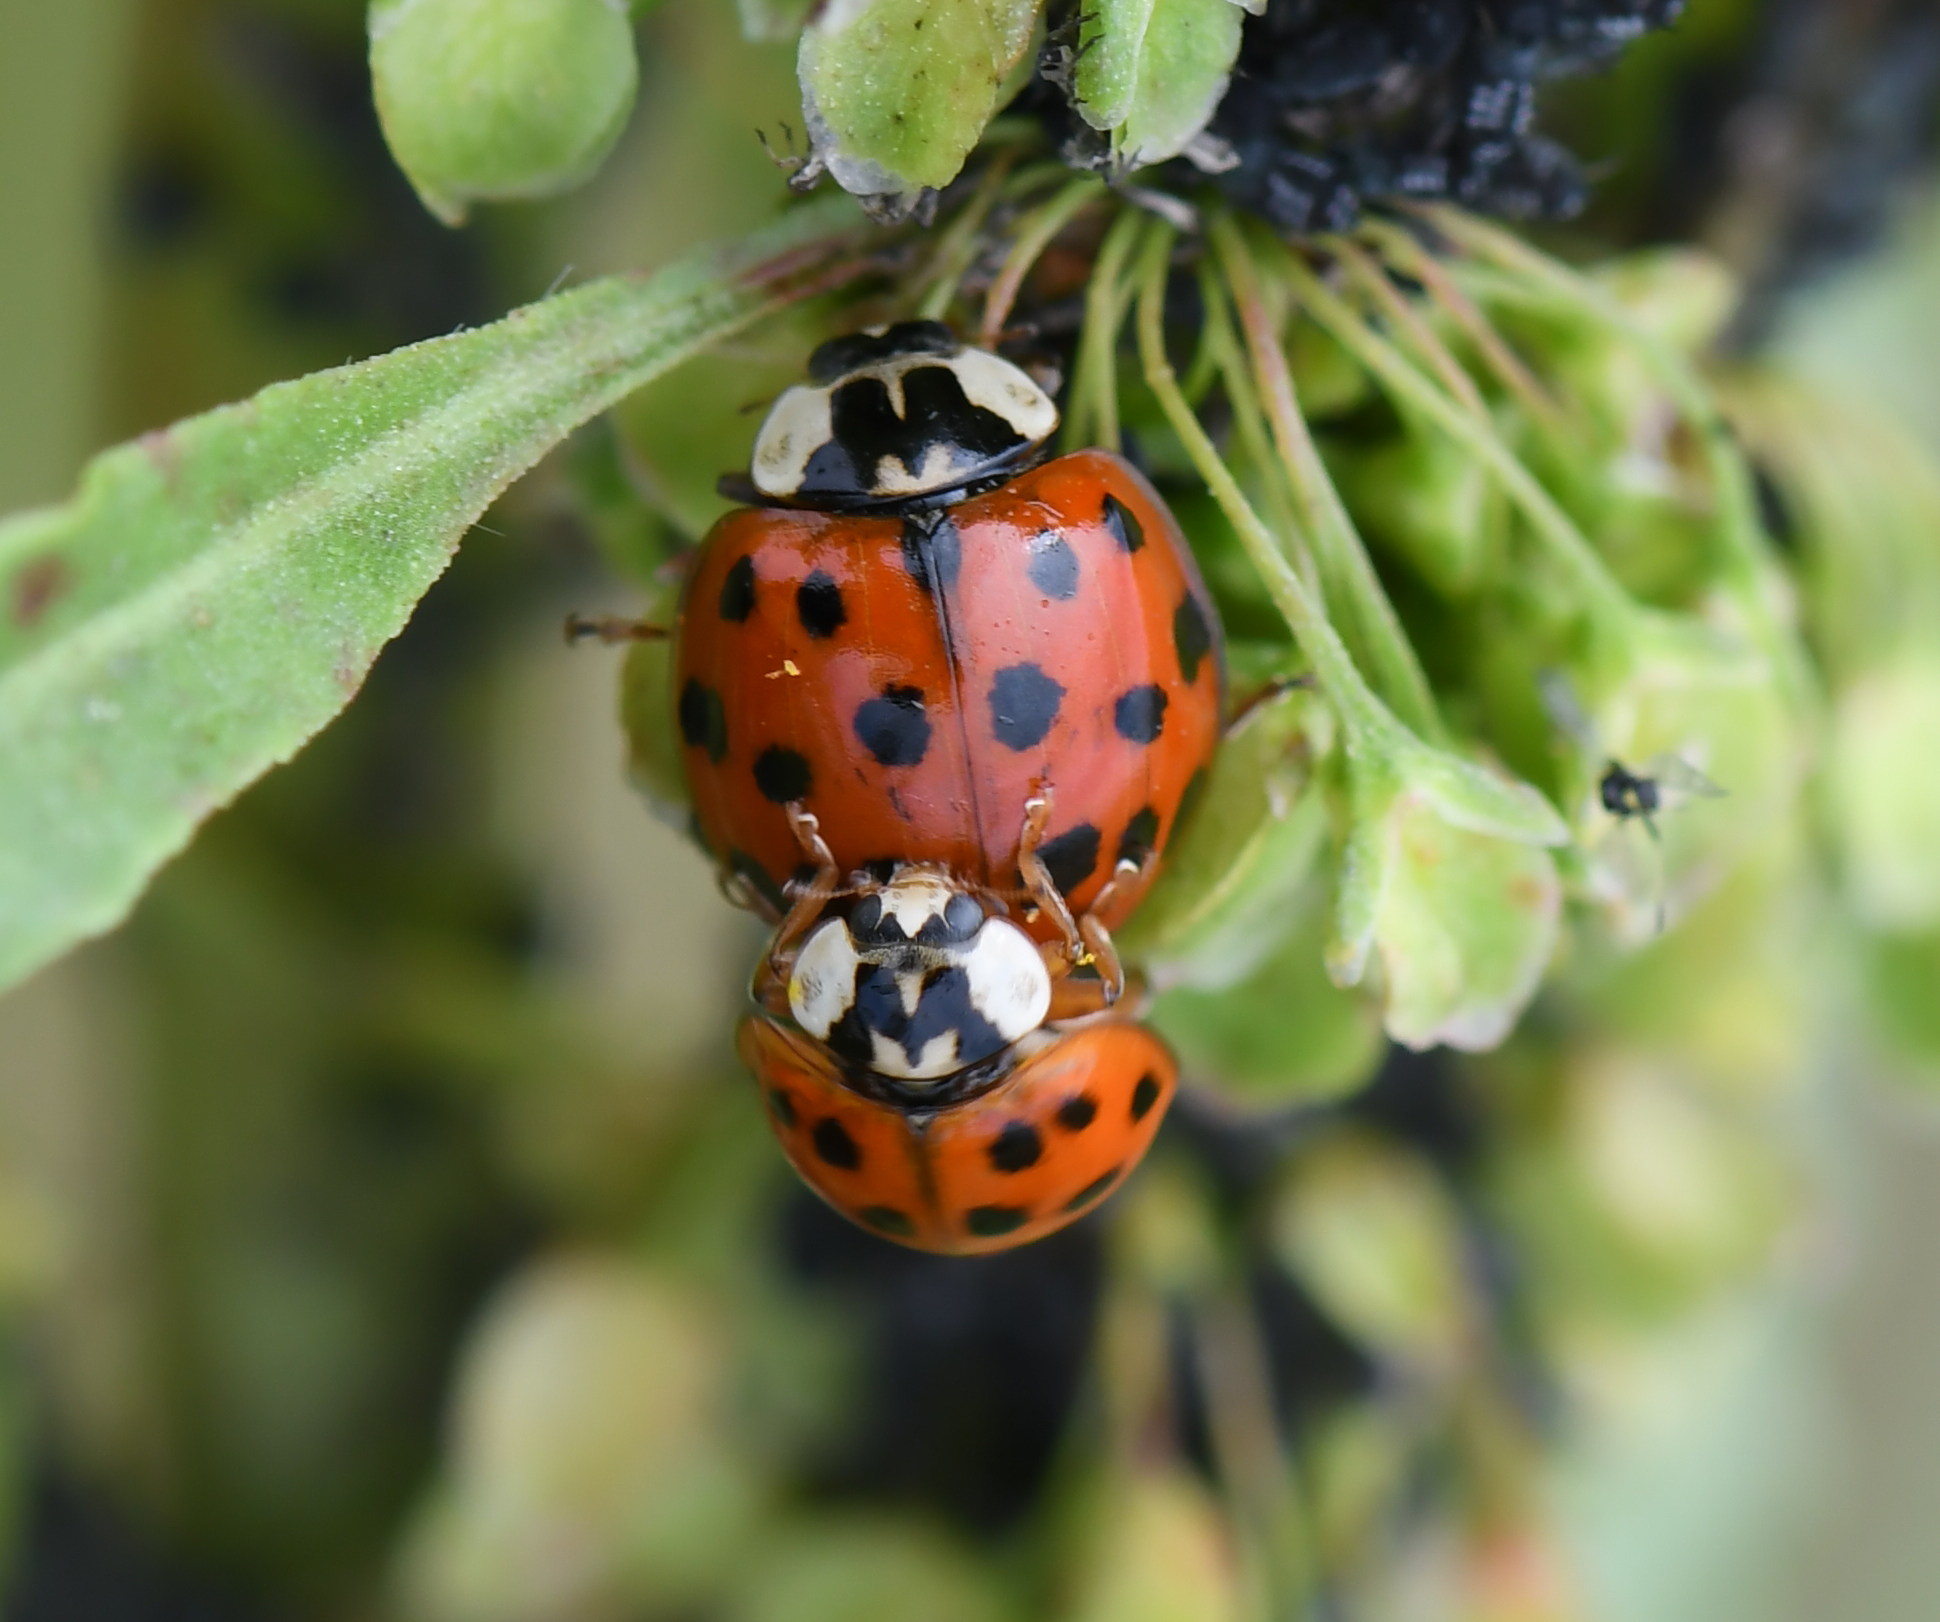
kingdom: Animalia
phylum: Arthropoda
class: Insecta
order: Coleoptera
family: Coccinellidae
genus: Harmonia
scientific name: Harmonia axyridis
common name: Harlequin ladybird
